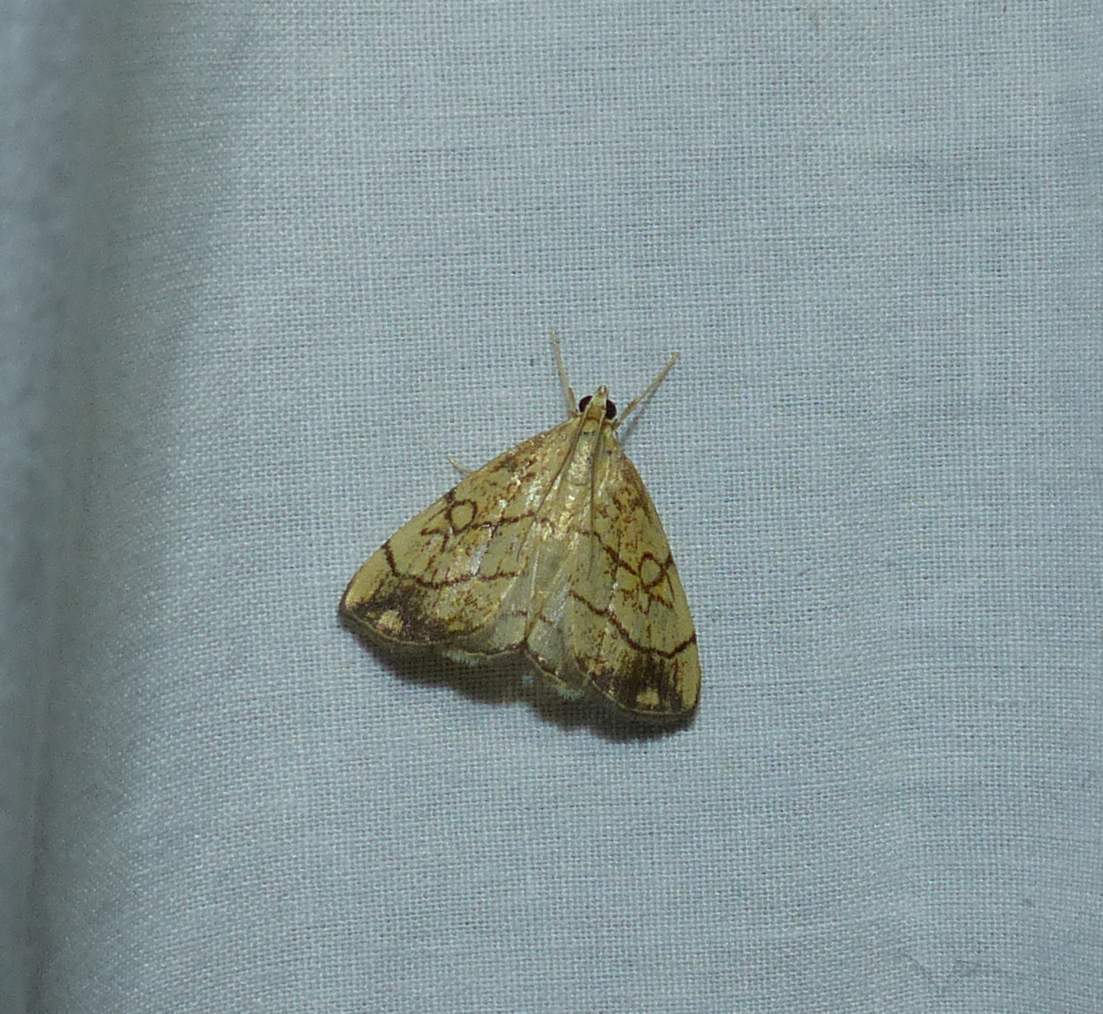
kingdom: Animalia
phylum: Arthropoda
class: Insecta
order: Lepidoptera
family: Crambidae
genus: Evergestis
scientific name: Evergestis pallidata
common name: Chequered pearl
